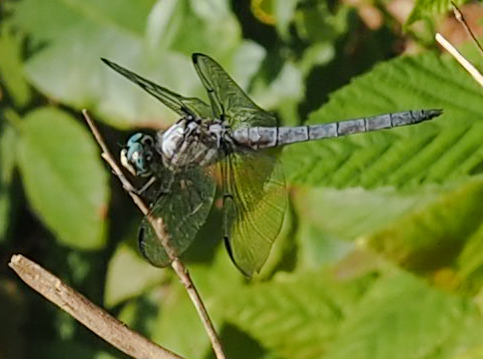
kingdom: Animalia
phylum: Arthropoda
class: Insecta
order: Odonata
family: Libellulidae
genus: Libellula
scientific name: Libellula vibrans
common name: Great blue skimmer
